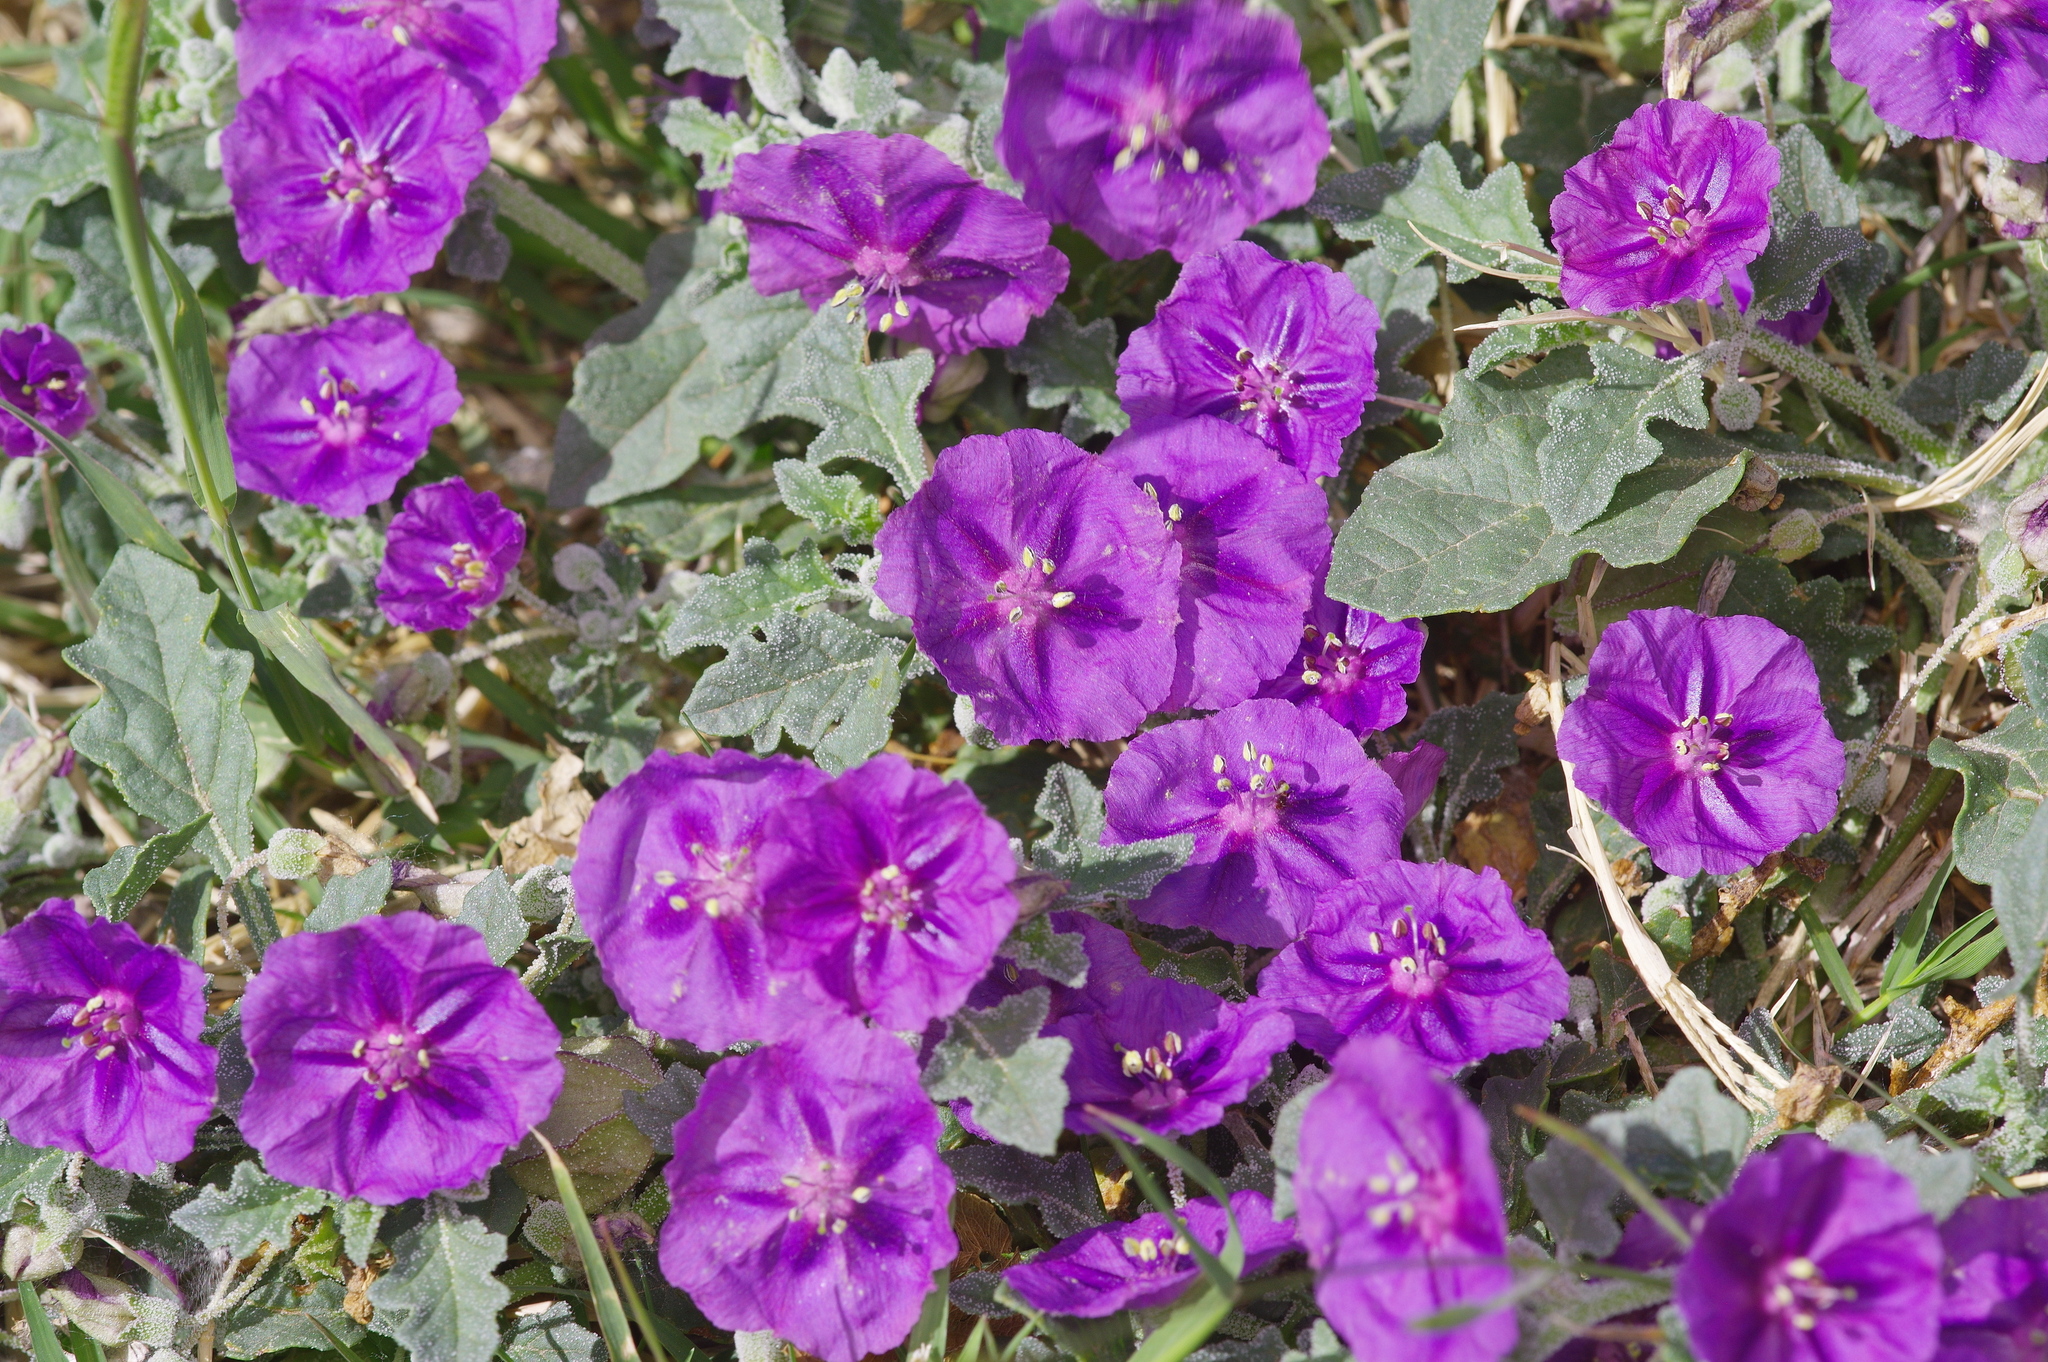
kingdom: Plantae
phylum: Tracheophyta
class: Magnoliopsida
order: Solanales
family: Solanaceae
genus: Quincula
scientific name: Quincula lobata
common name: Purple-ground-cherry
